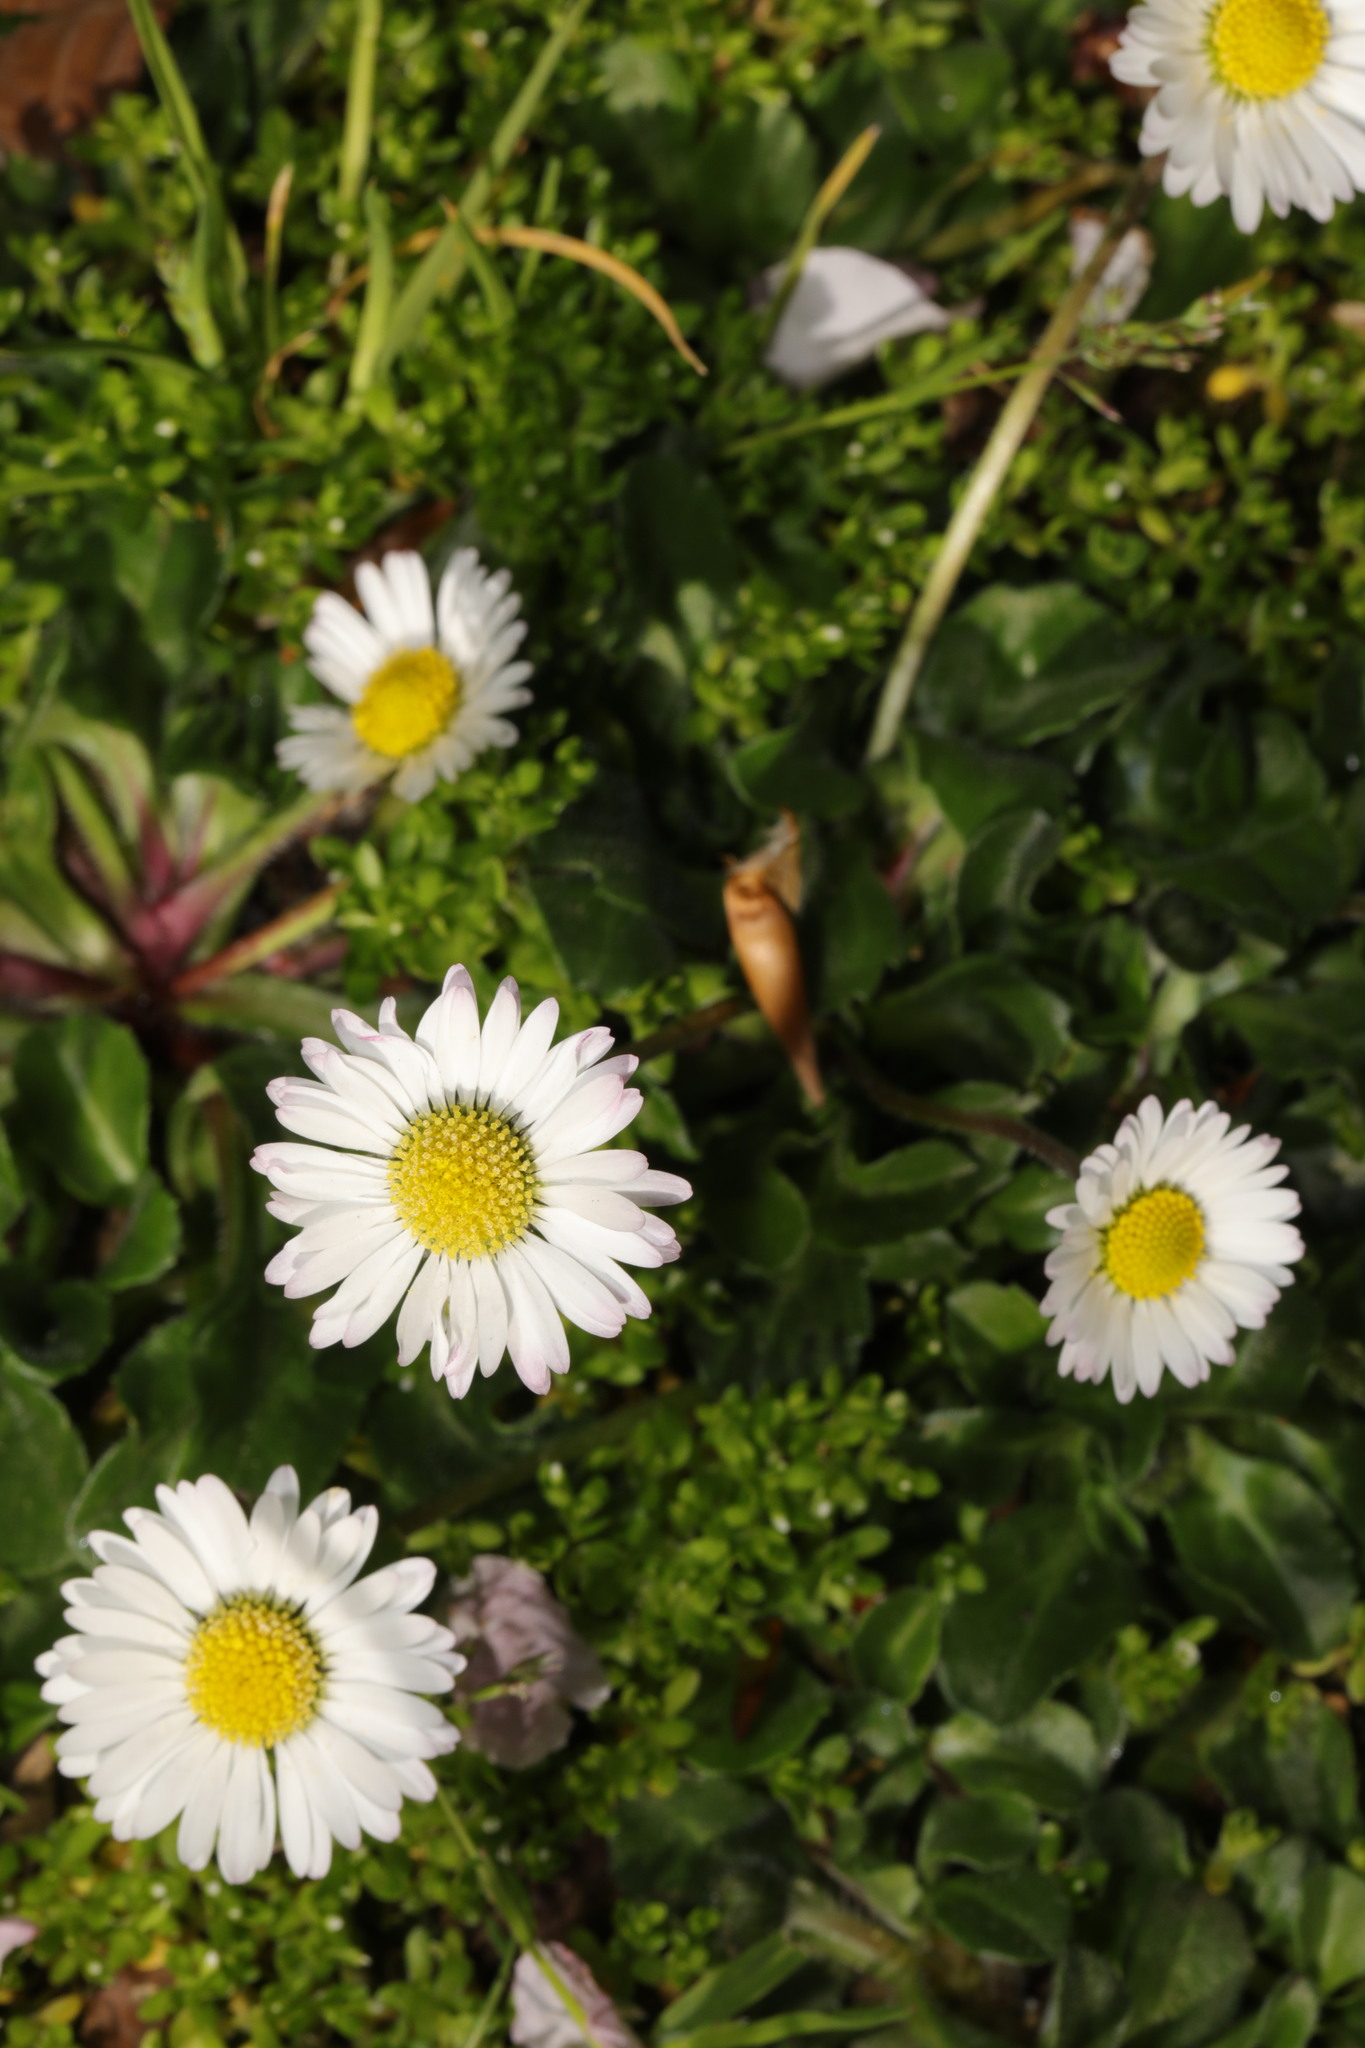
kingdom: Plantae
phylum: Tracheophyta
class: Magnoliopsida
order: Asterales
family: Asteraceae
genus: Bellis
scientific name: Bellis perennis
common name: Lawndaisy
